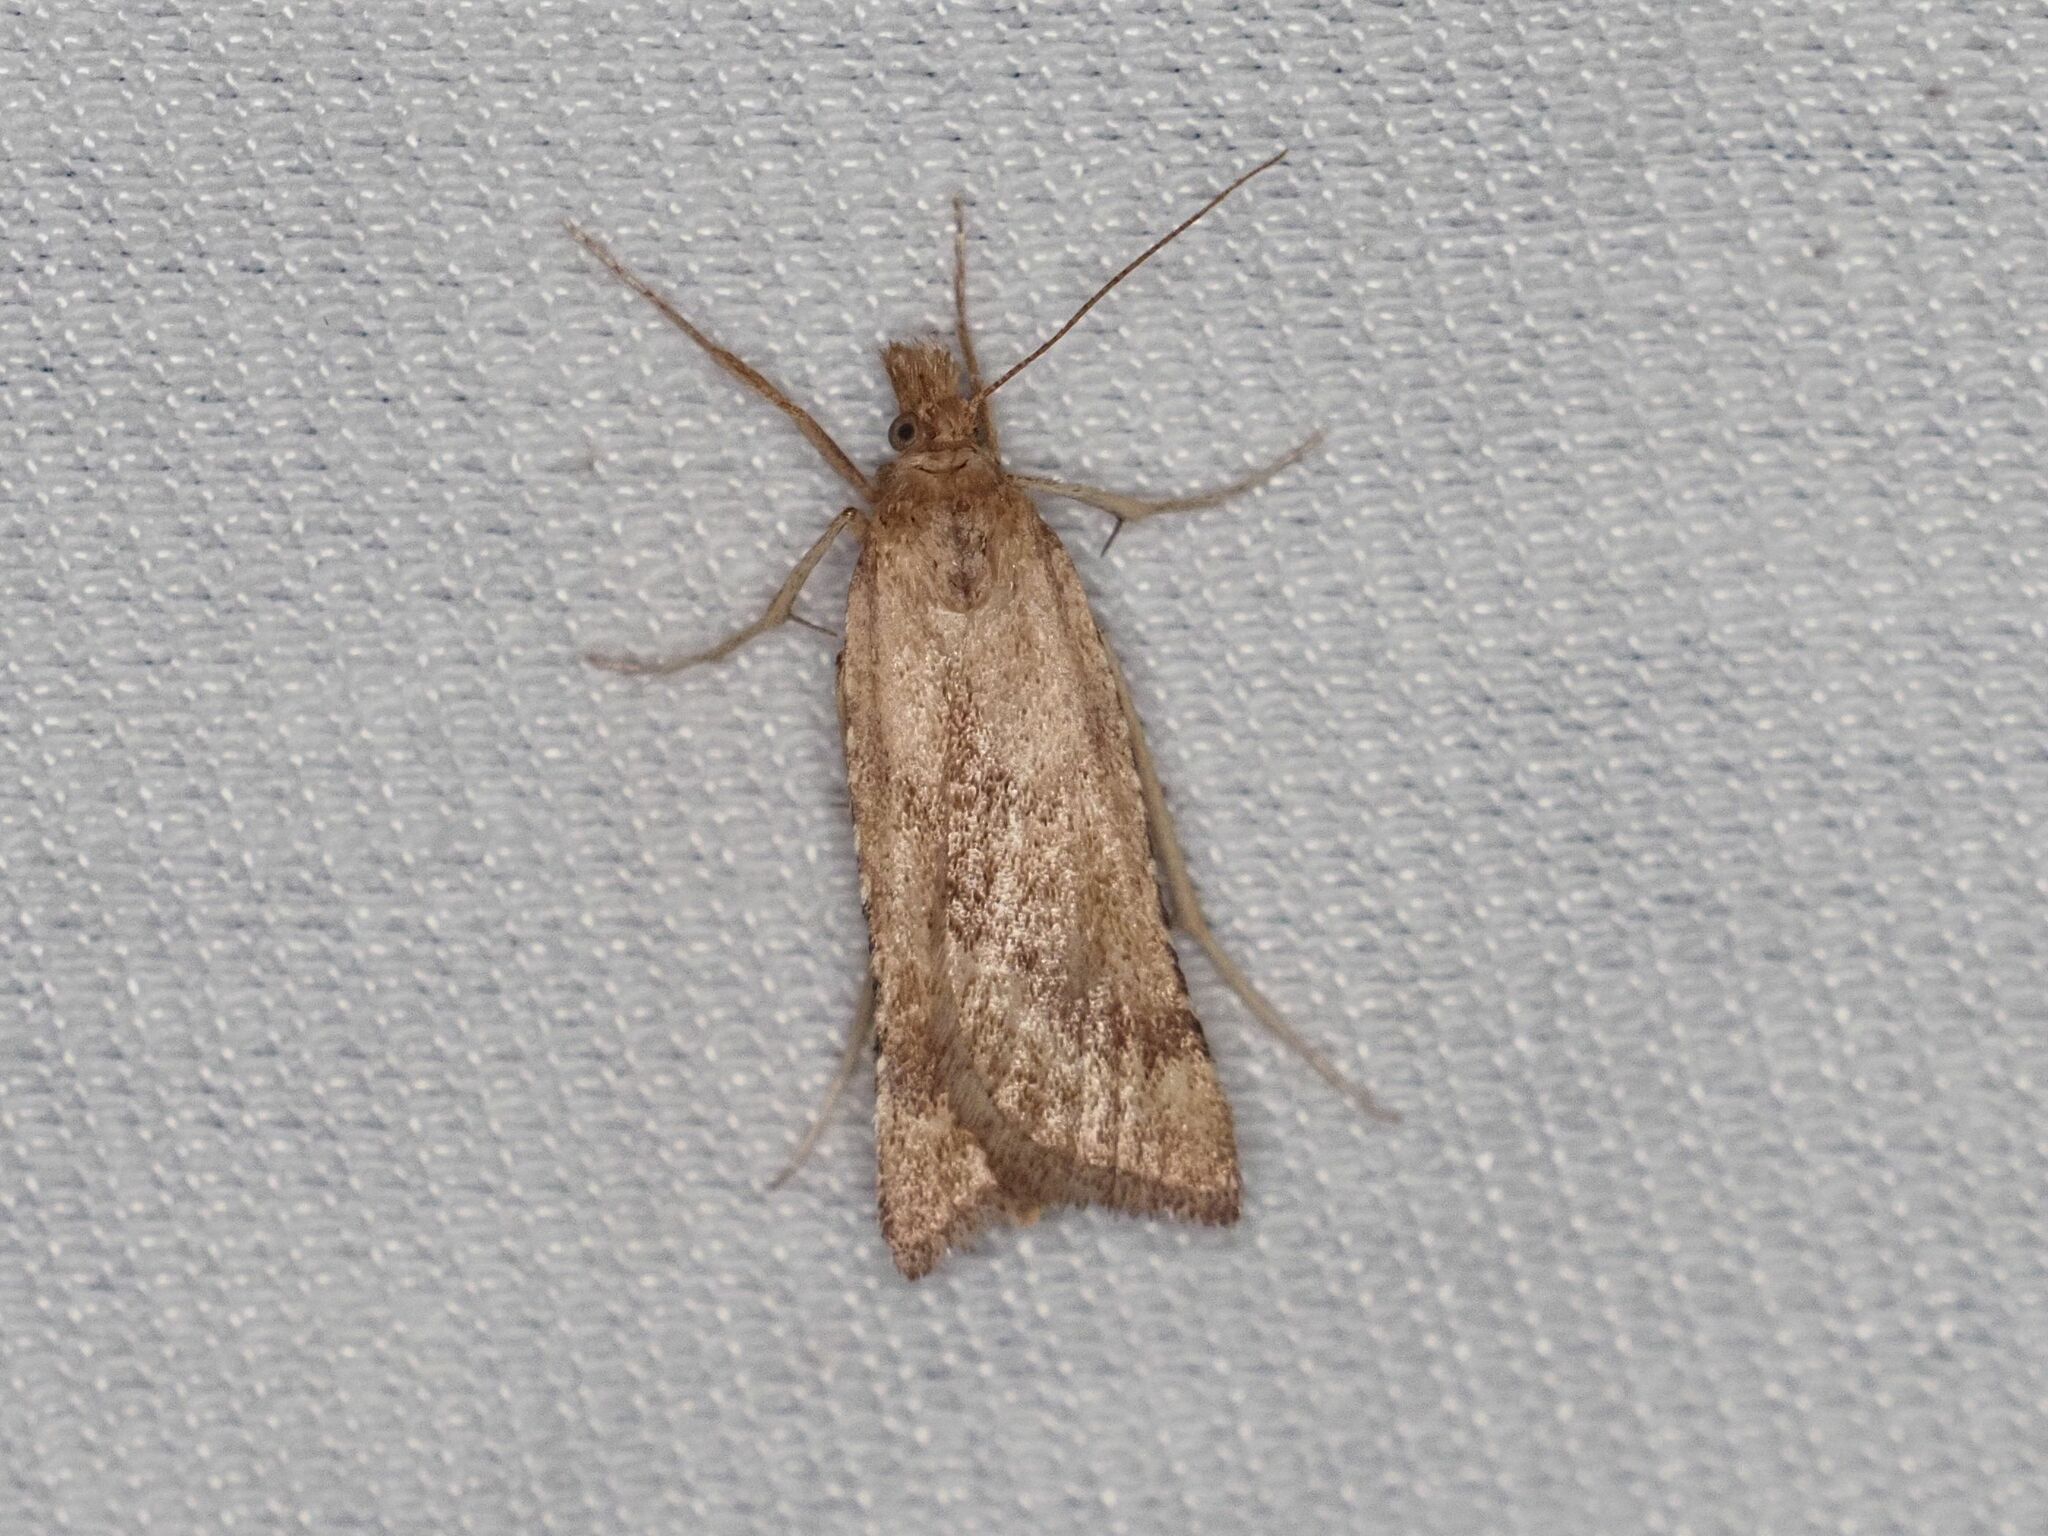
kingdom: Animalia
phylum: Arthropoda
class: Insecta
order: Lepidoptera
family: Pyralidae
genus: Synaphe
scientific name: Synaphe punctalis
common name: Long-legged tabby
